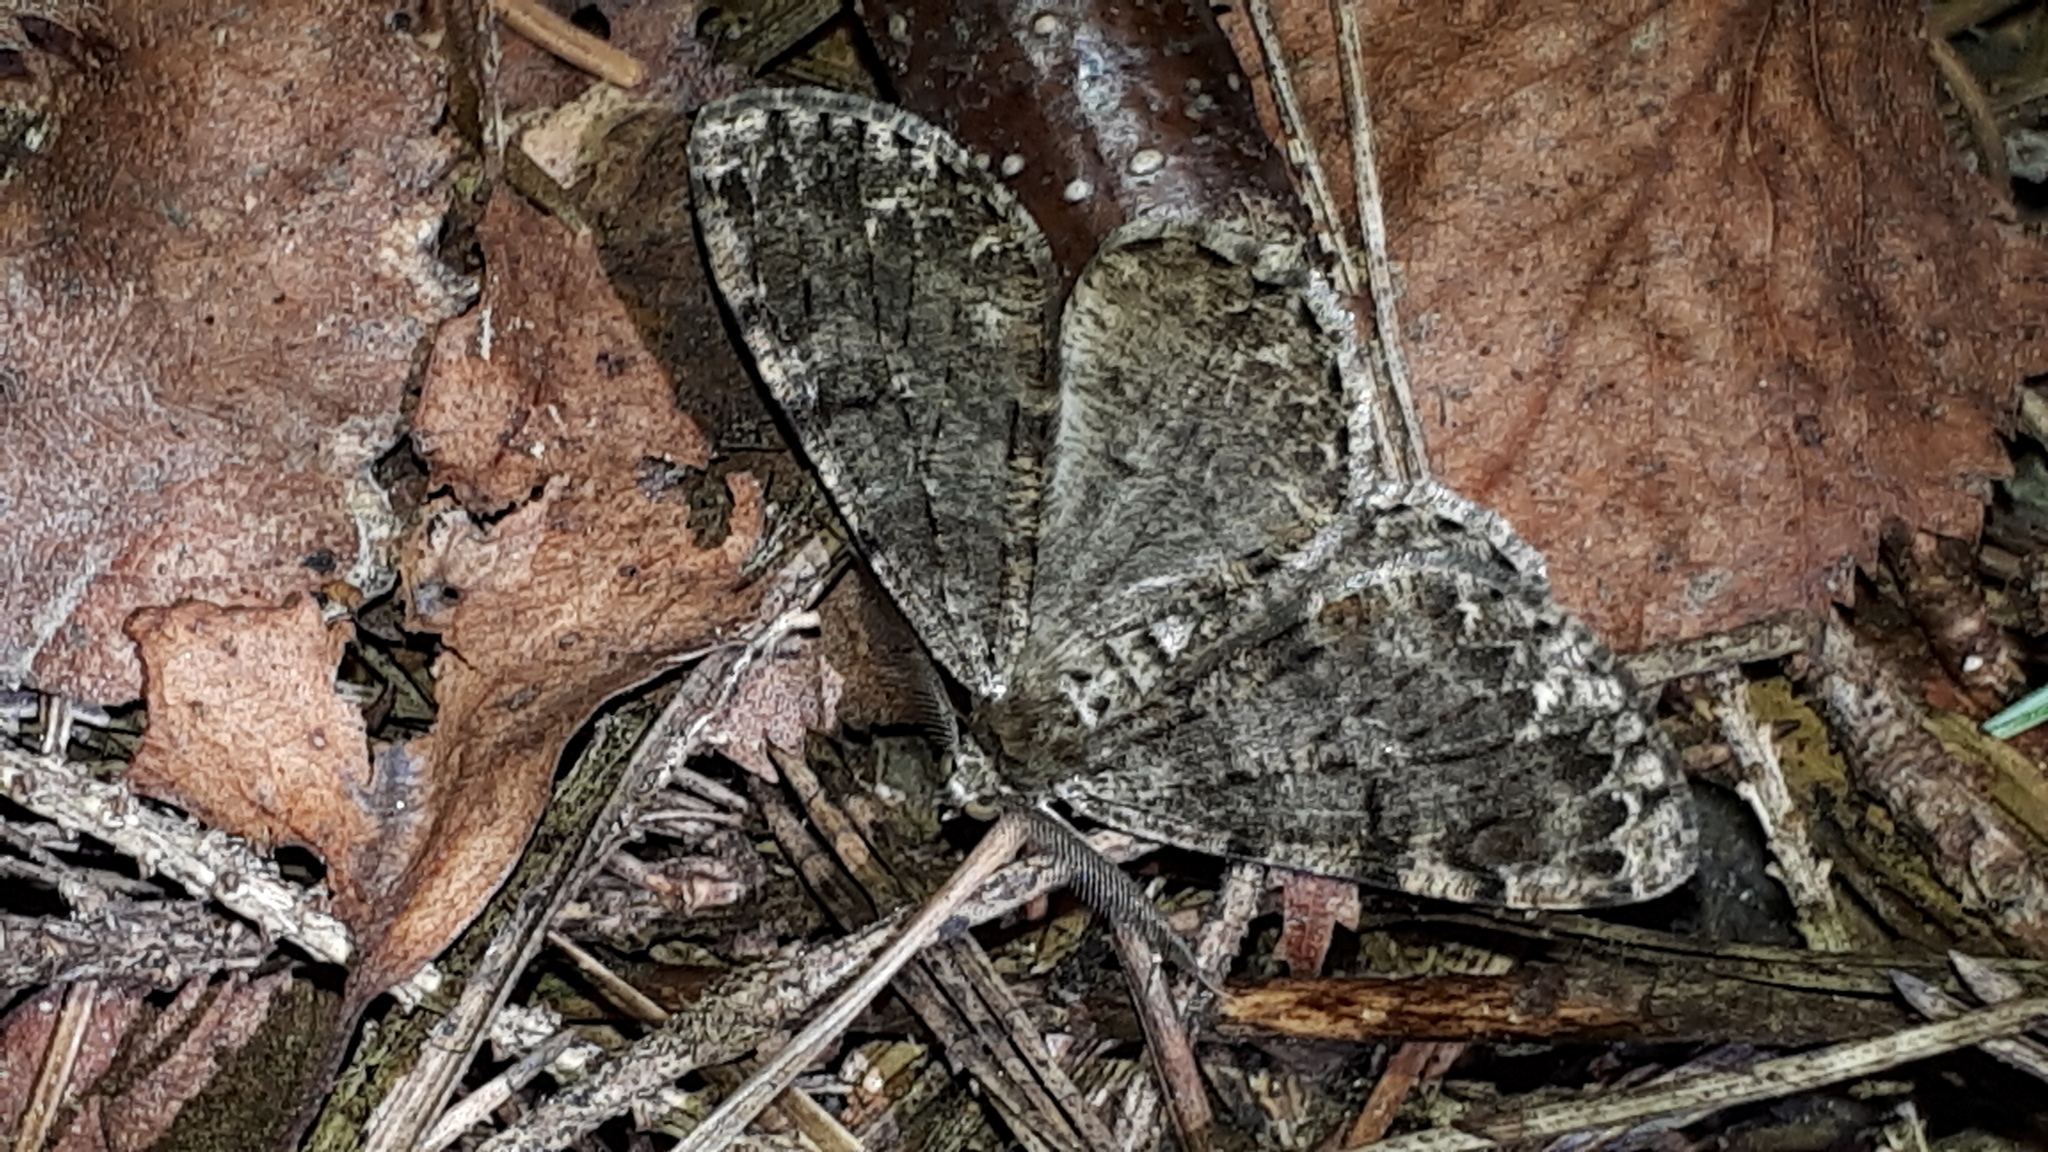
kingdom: Animalia
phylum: Arthropoda
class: Insecta
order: Lepidoptera
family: Geometridae
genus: Deileptenia
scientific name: Deileptenia ribeata
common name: Satin beauty
